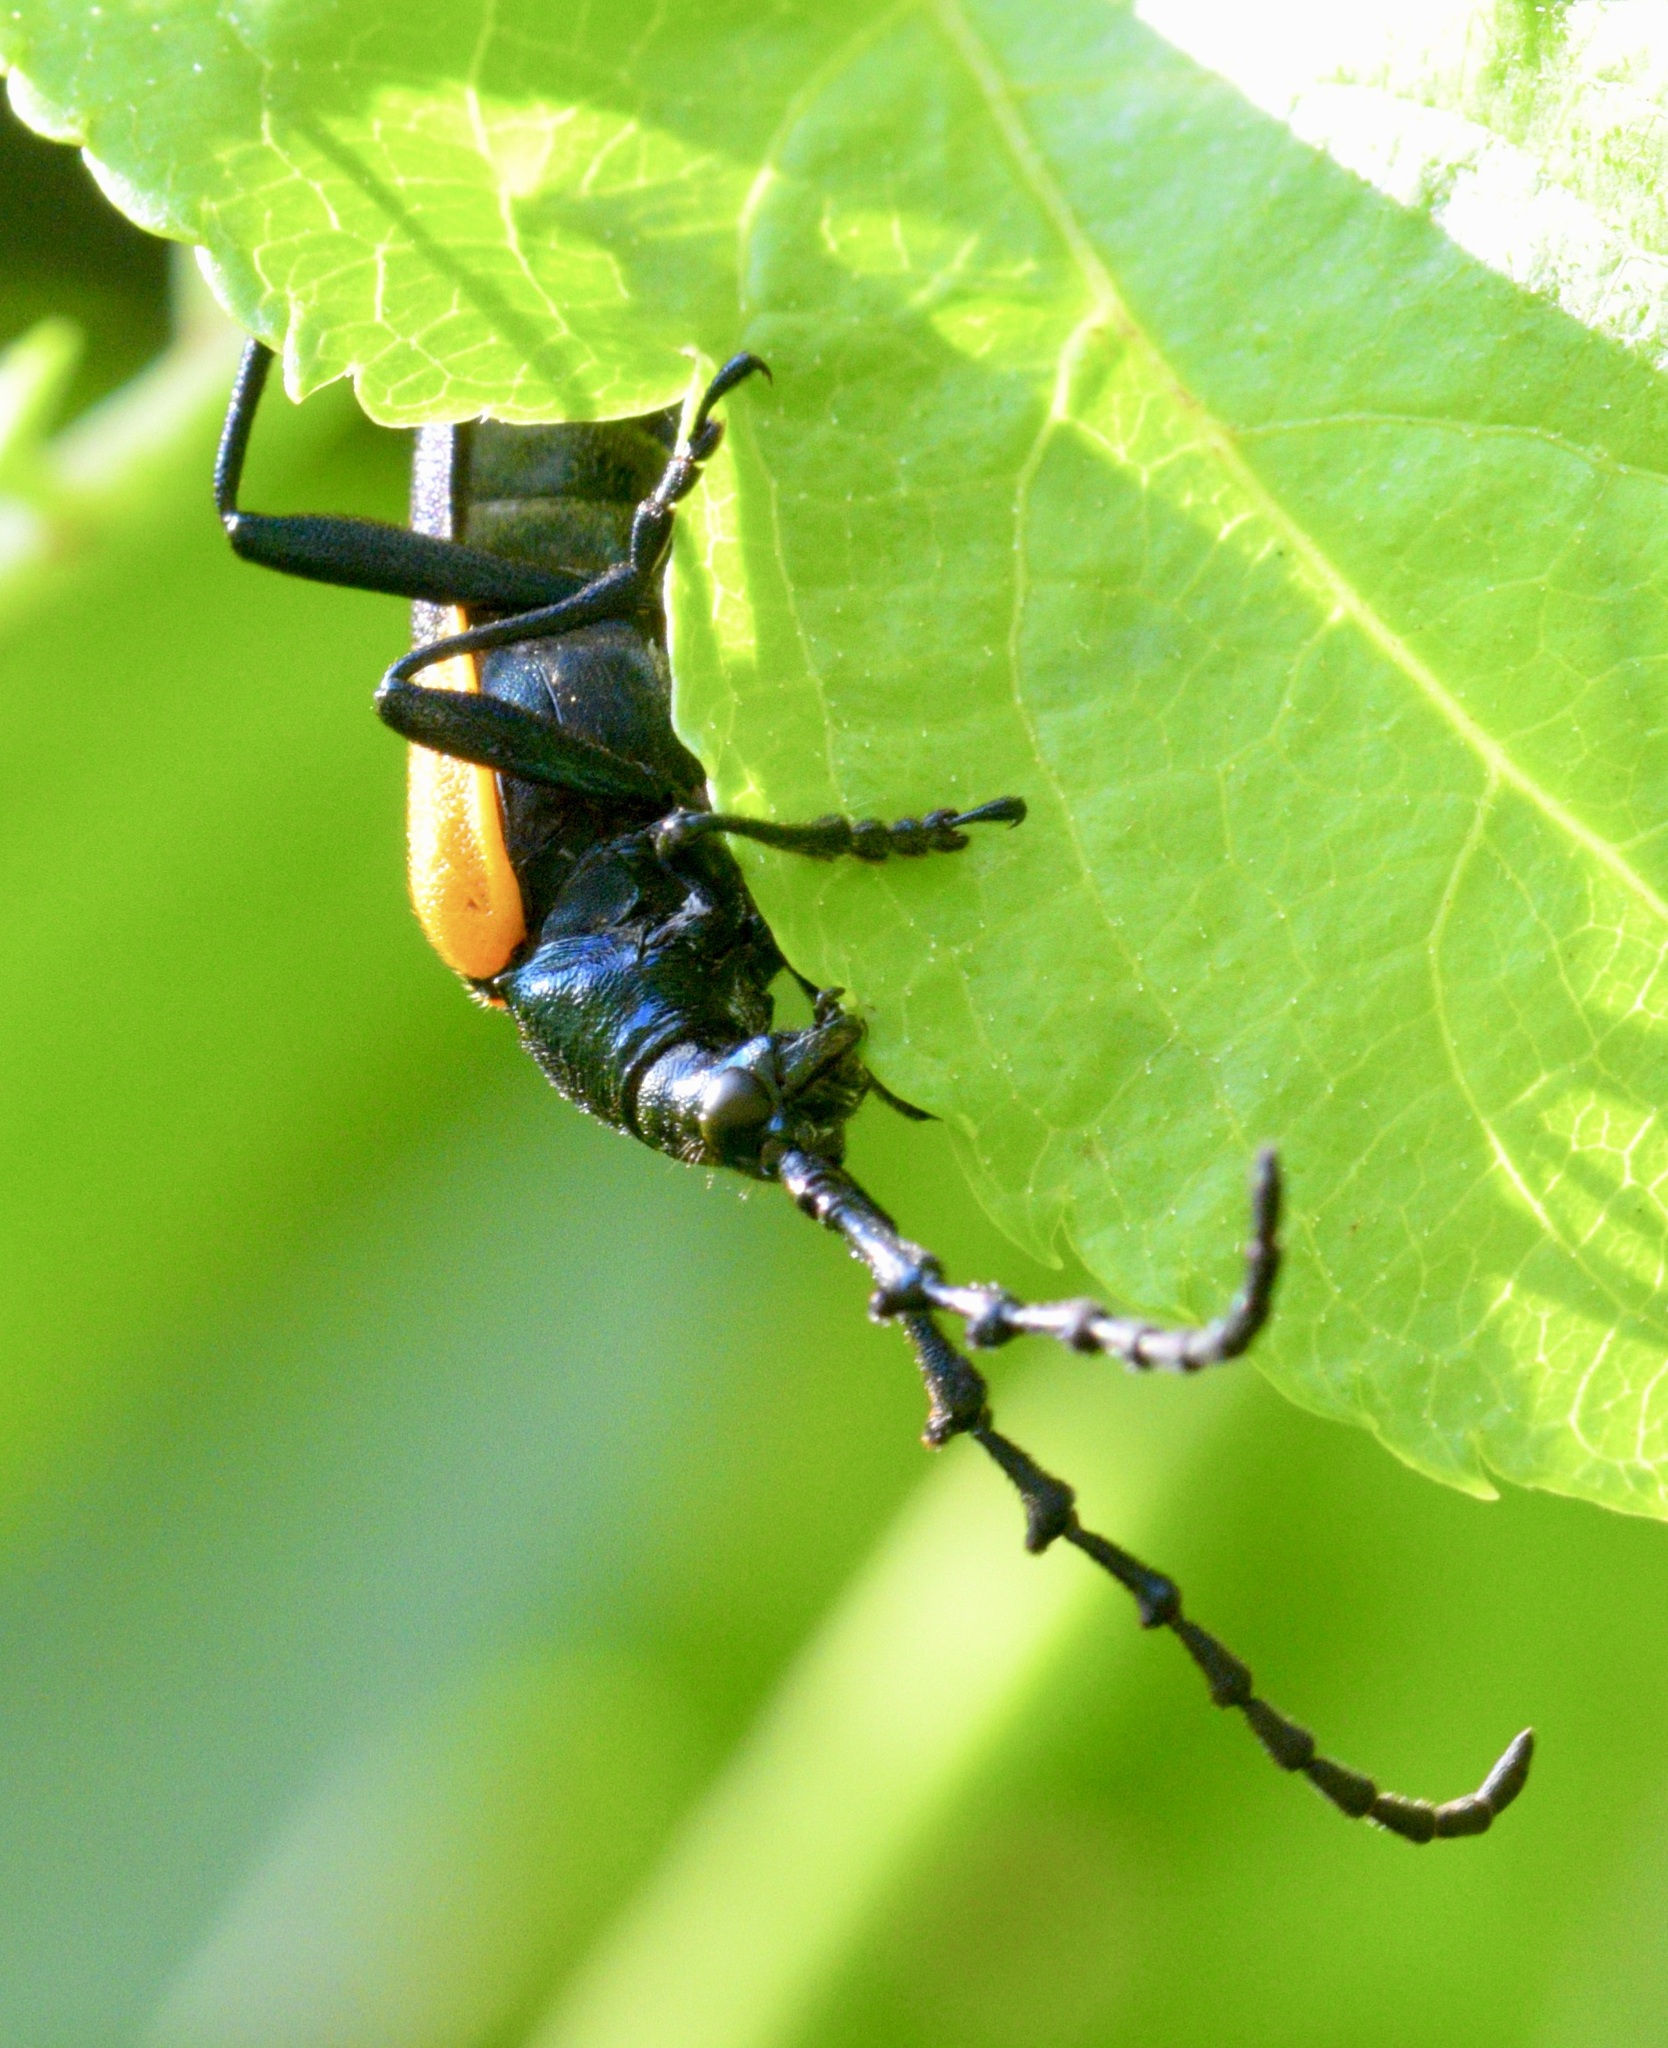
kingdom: Animalia
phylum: Arthropoda
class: Insecta
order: Coleoptera
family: Cerambycidae
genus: Desmocerus
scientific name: Desmocerus palliatus
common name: Eastern elderberry borer
